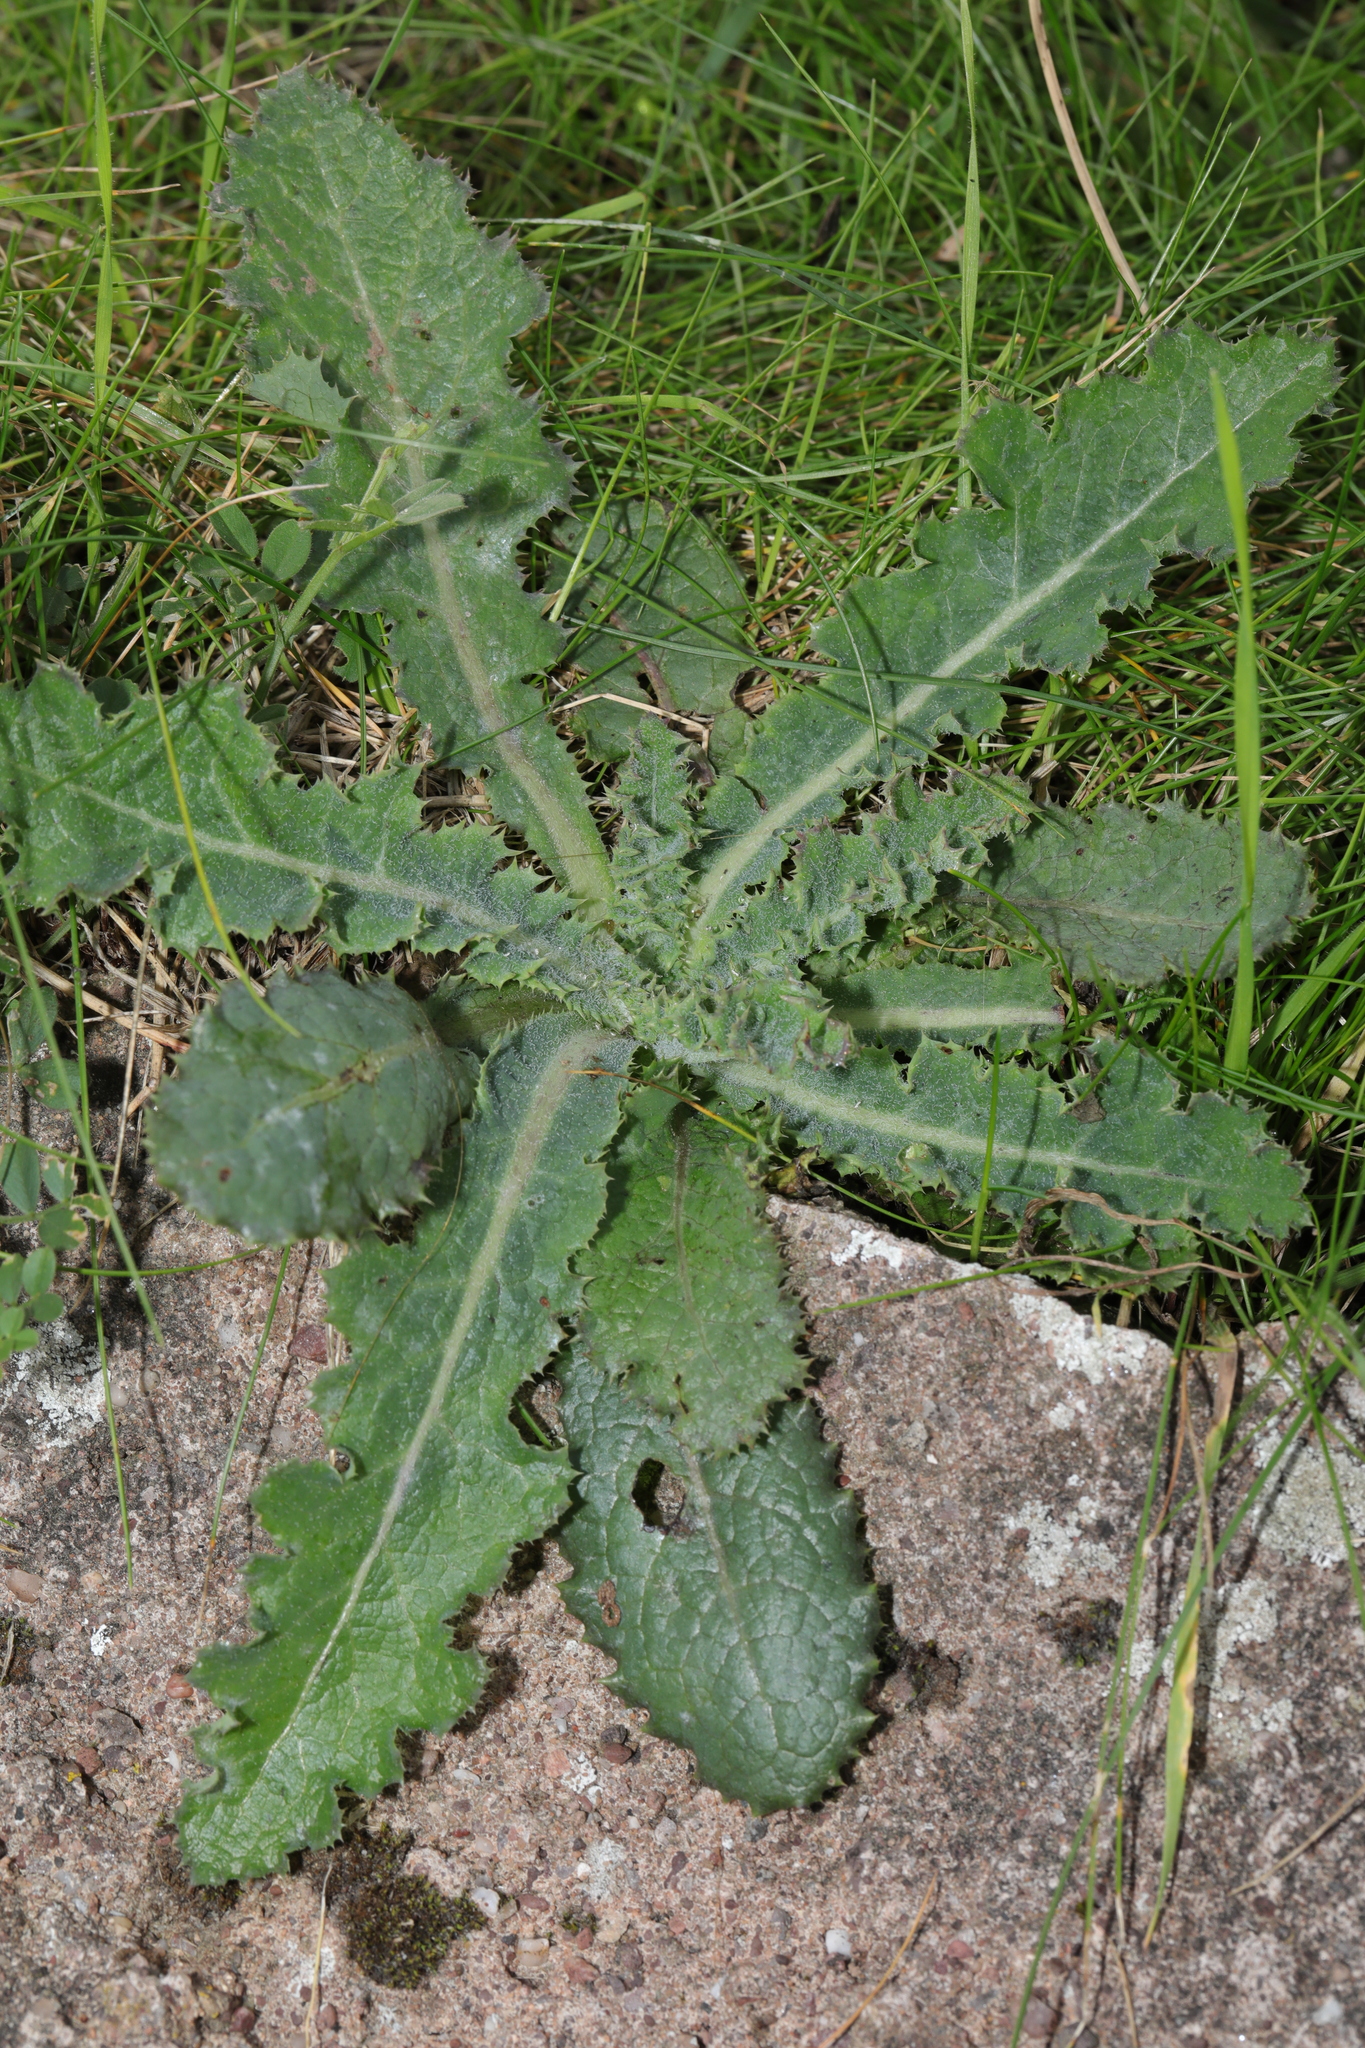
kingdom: Plantae
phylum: Tracheophyta
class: Magnoliopsida
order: Asterales
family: Asteraceae
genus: Sonchus
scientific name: Sonchus asper
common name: Prickly sow-thistle
